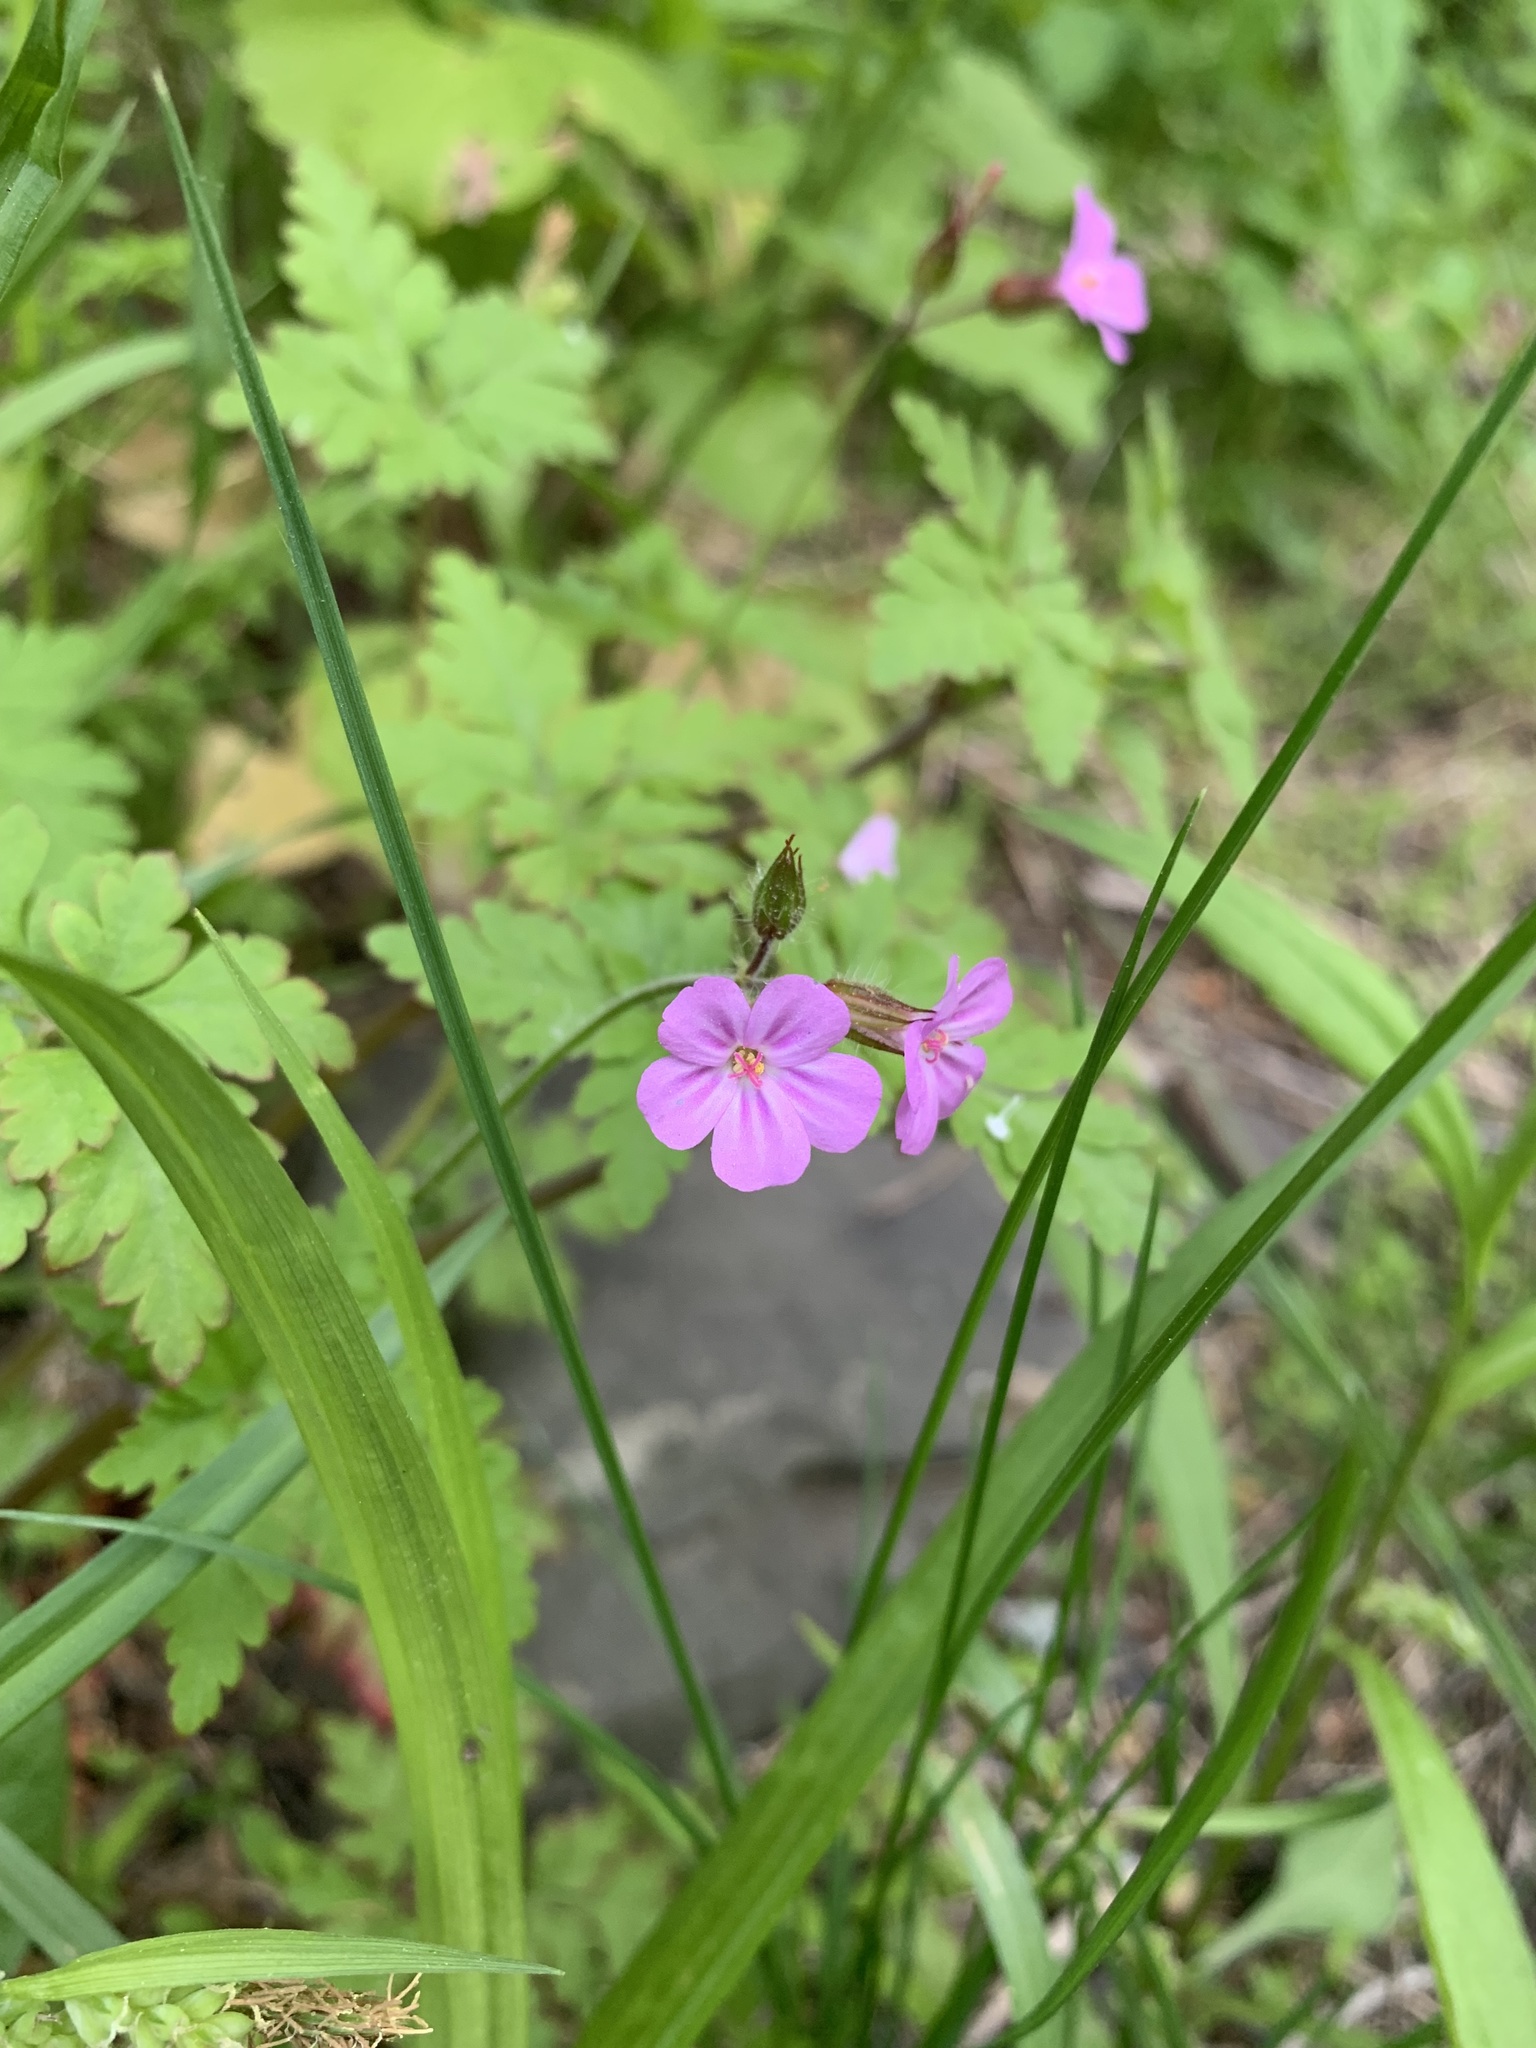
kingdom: Plantae
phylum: Tracheophyta
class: Magnoliopsida
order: Geraniales
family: Geraniaceae
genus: Geranium
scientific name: Geranium robertianum
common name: Herb-robert
